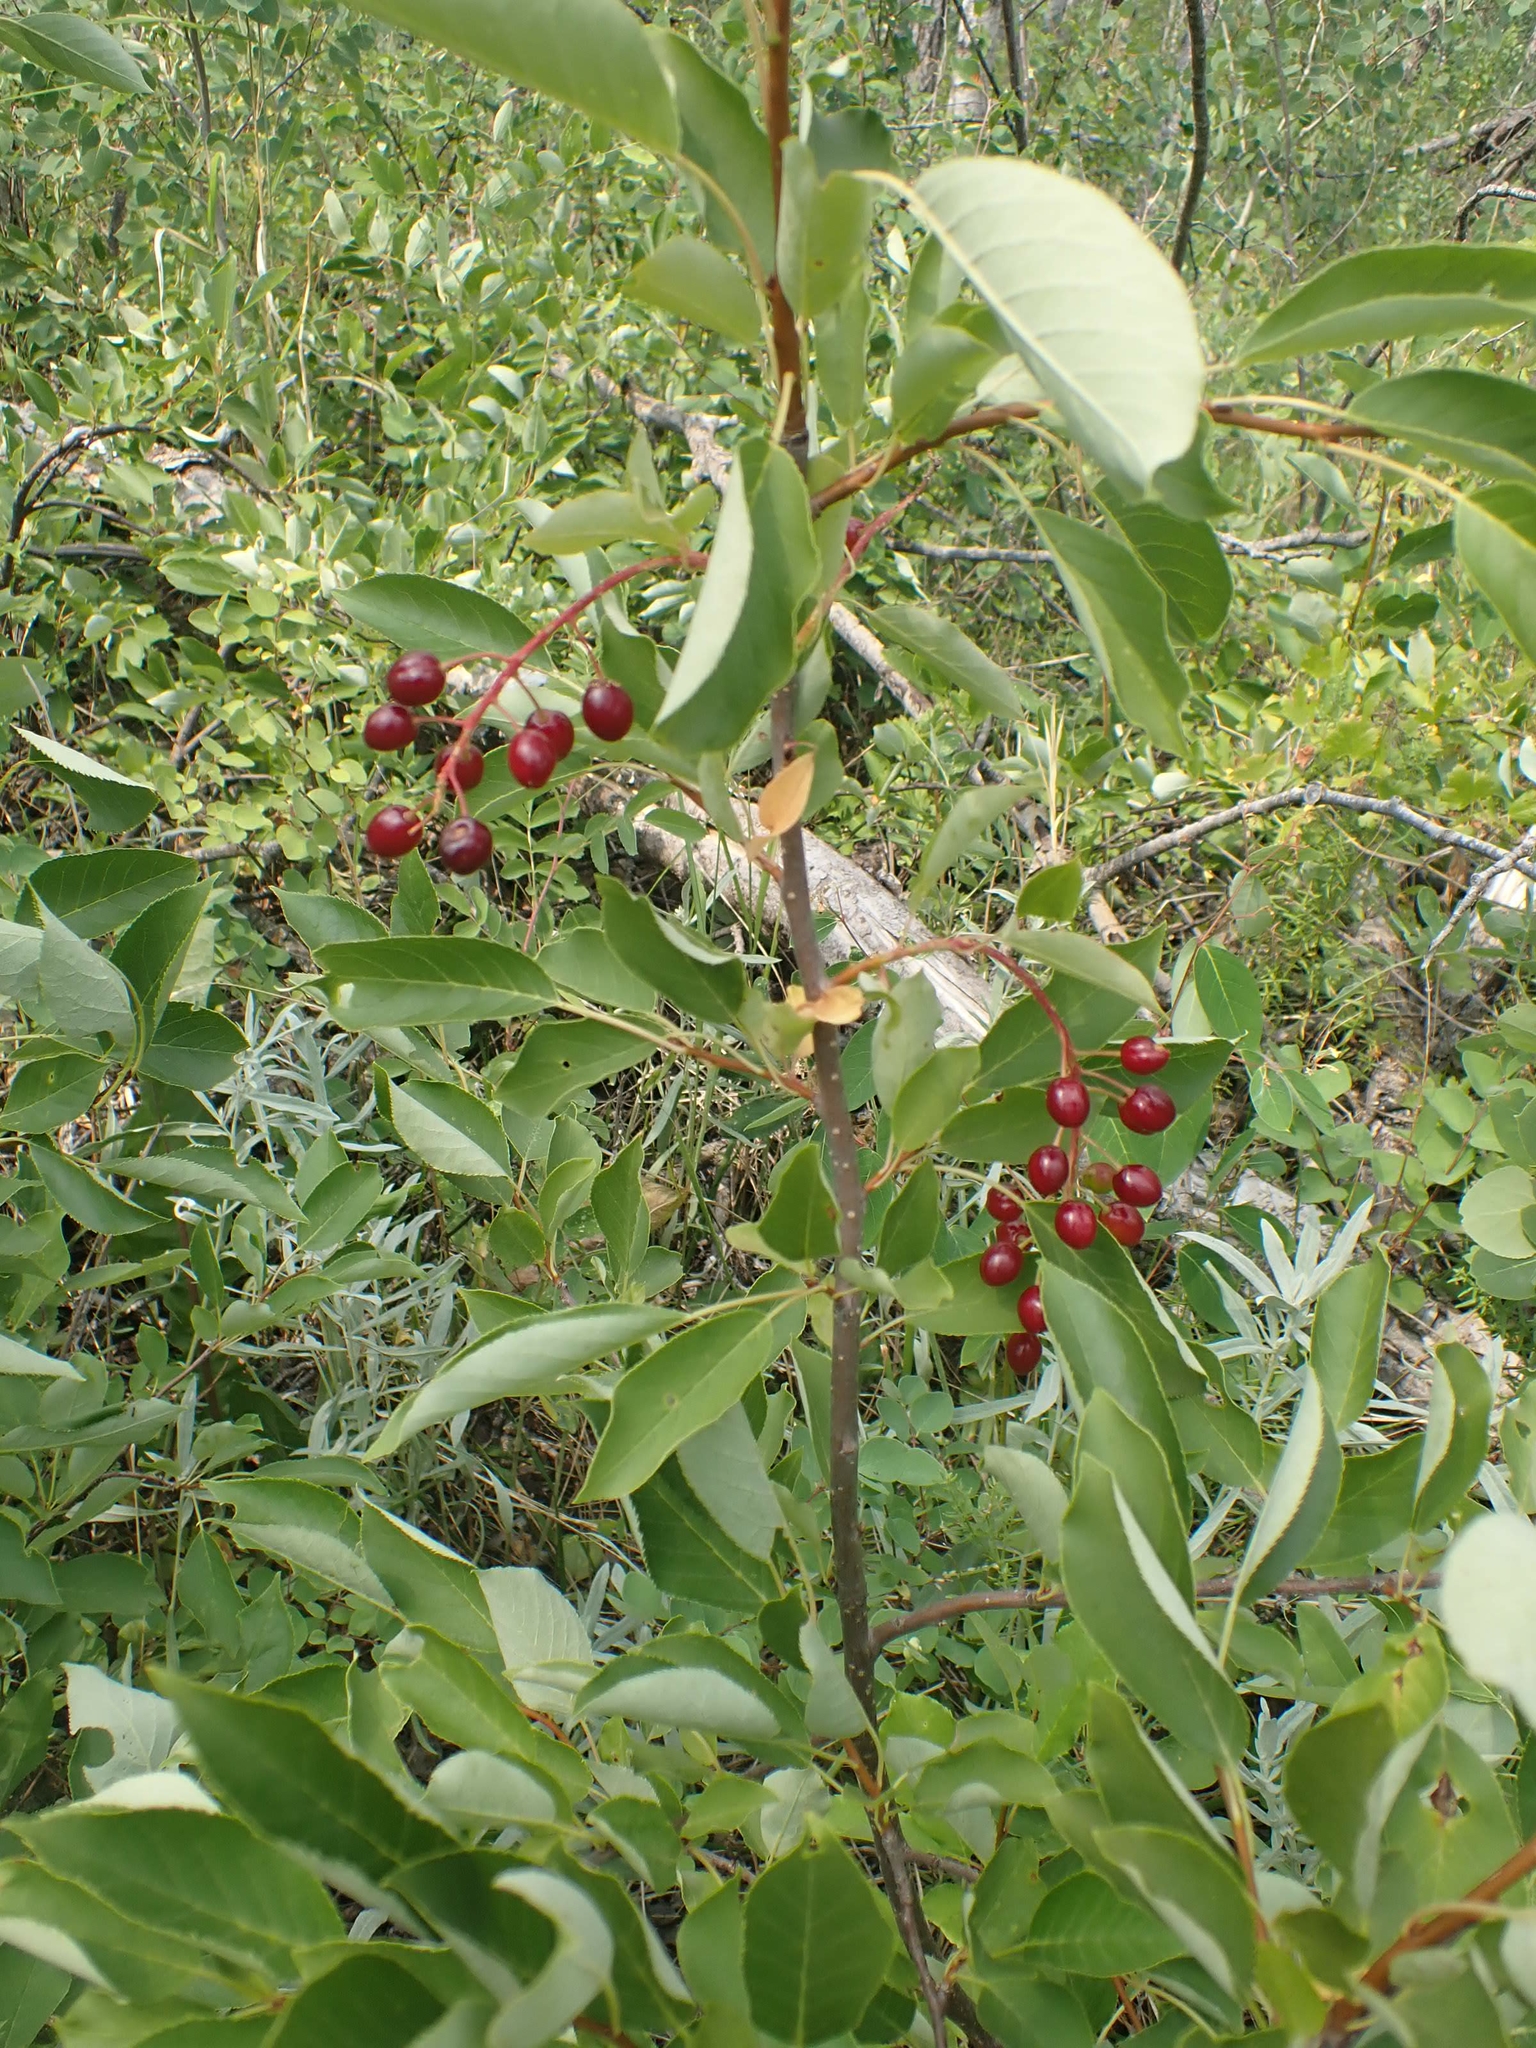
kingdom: Plantae
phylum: Tracheophyta
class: Magnoliopsida
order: Rosales
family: Rosaceae
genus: Prunus
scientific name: Prunus virginiana
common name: Chokecherry
